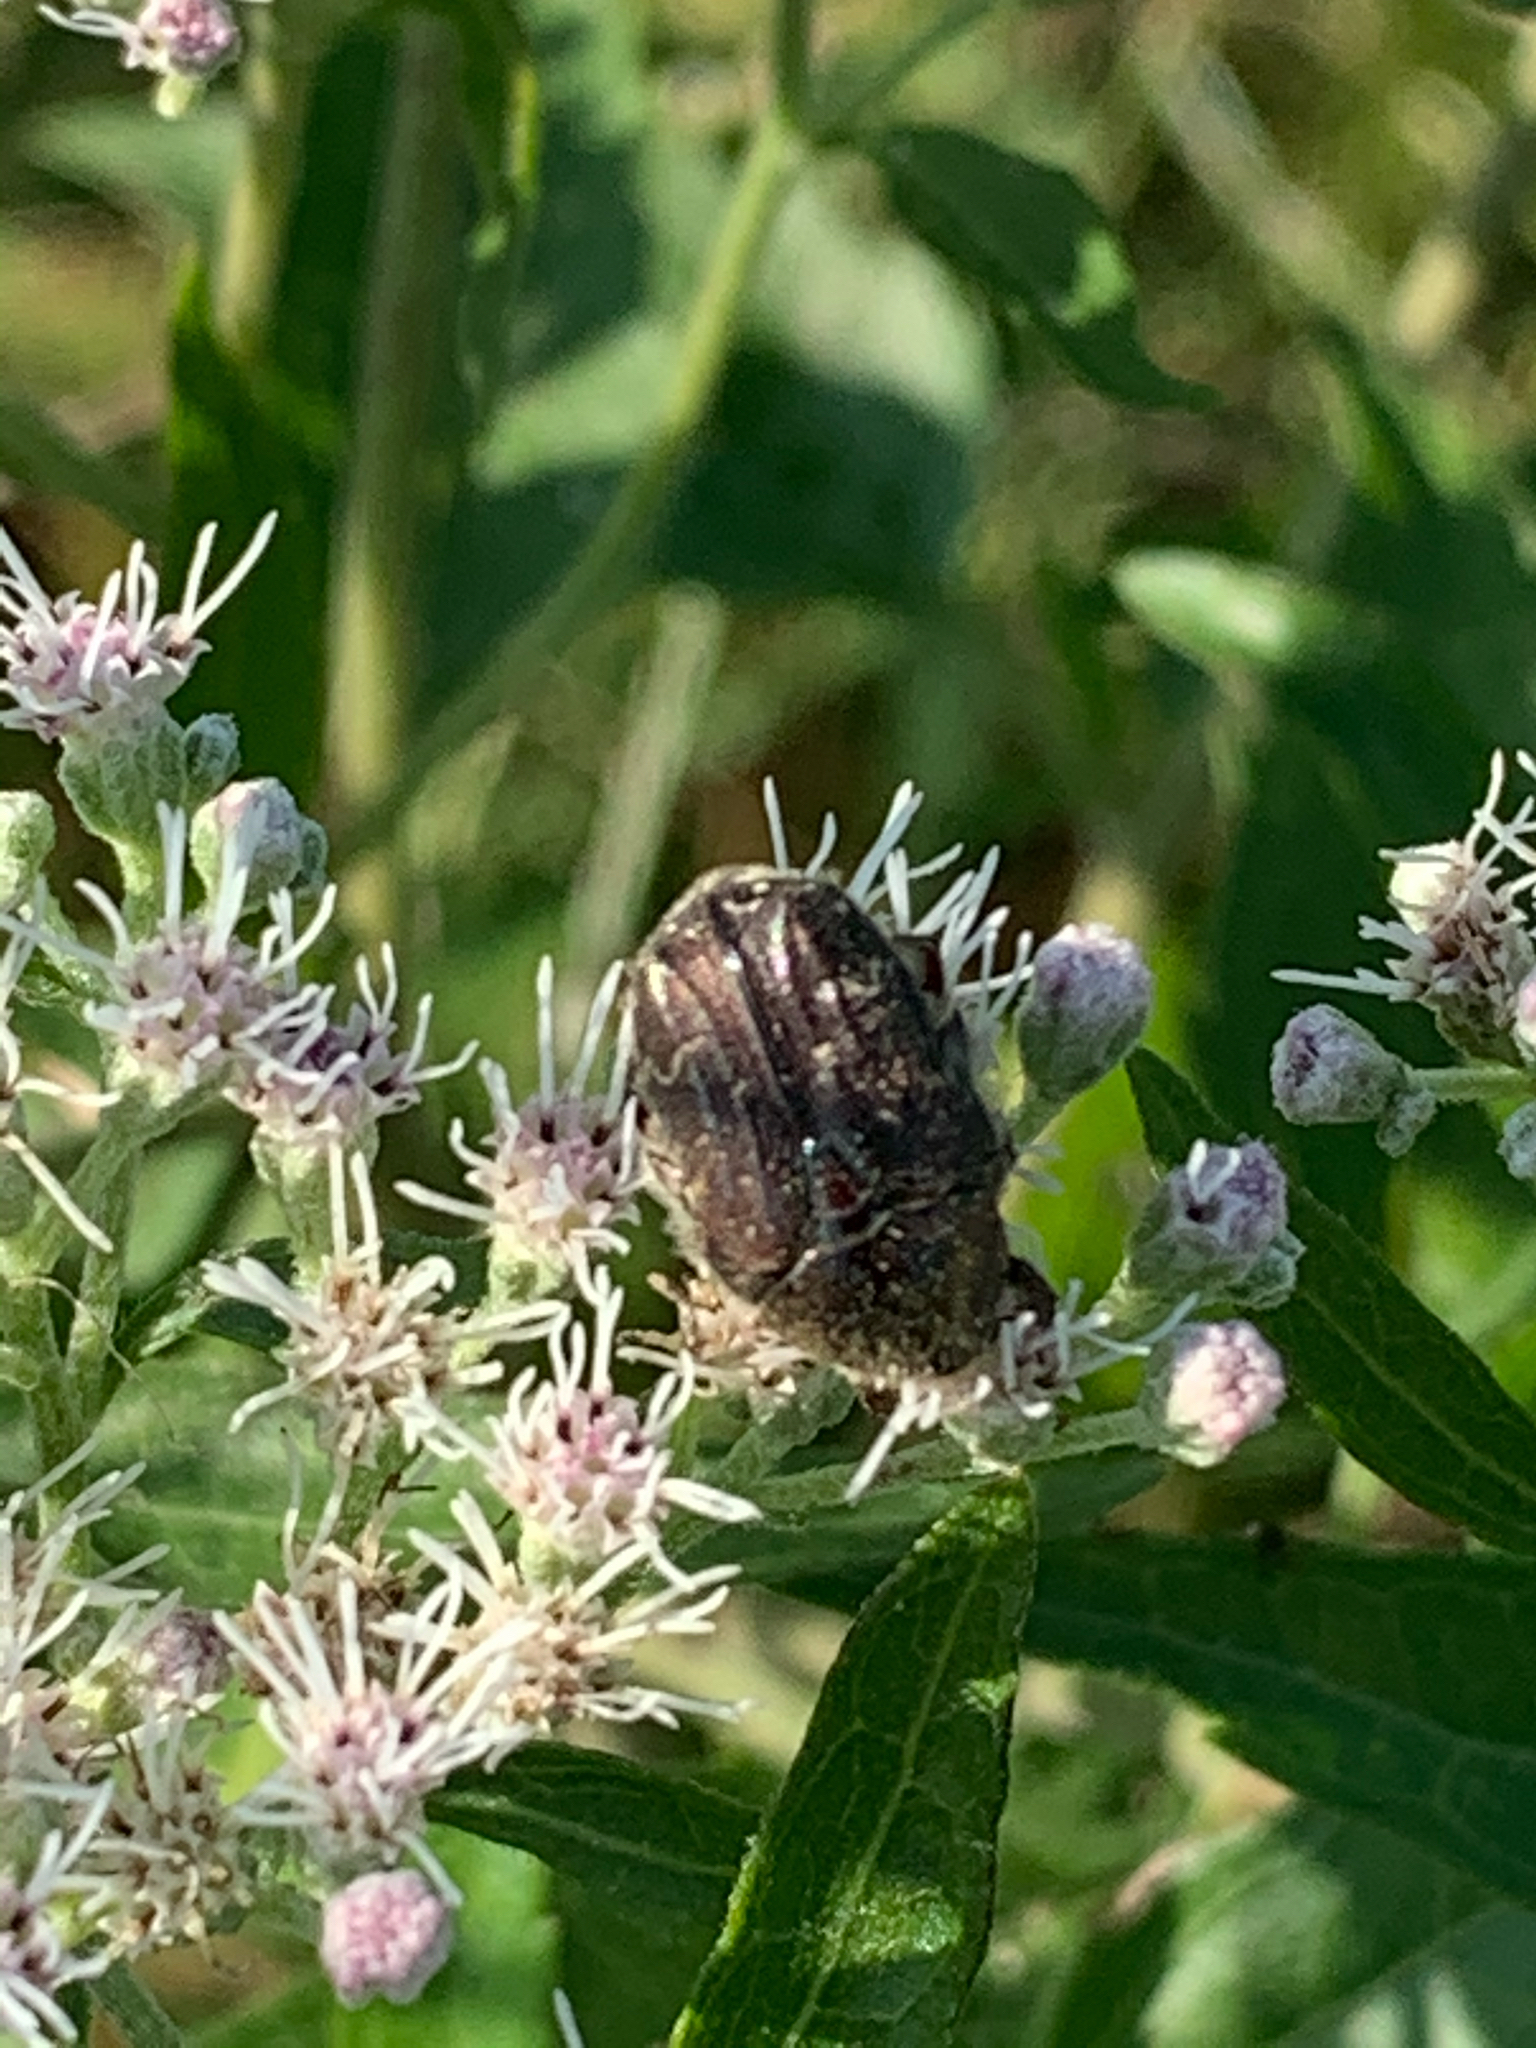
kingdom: Animalia
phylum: Arthropoda
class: Insecta
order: Coleoptera
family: Scarabaeidae
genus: Euphoria
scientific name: Euphoria sepulcralis
